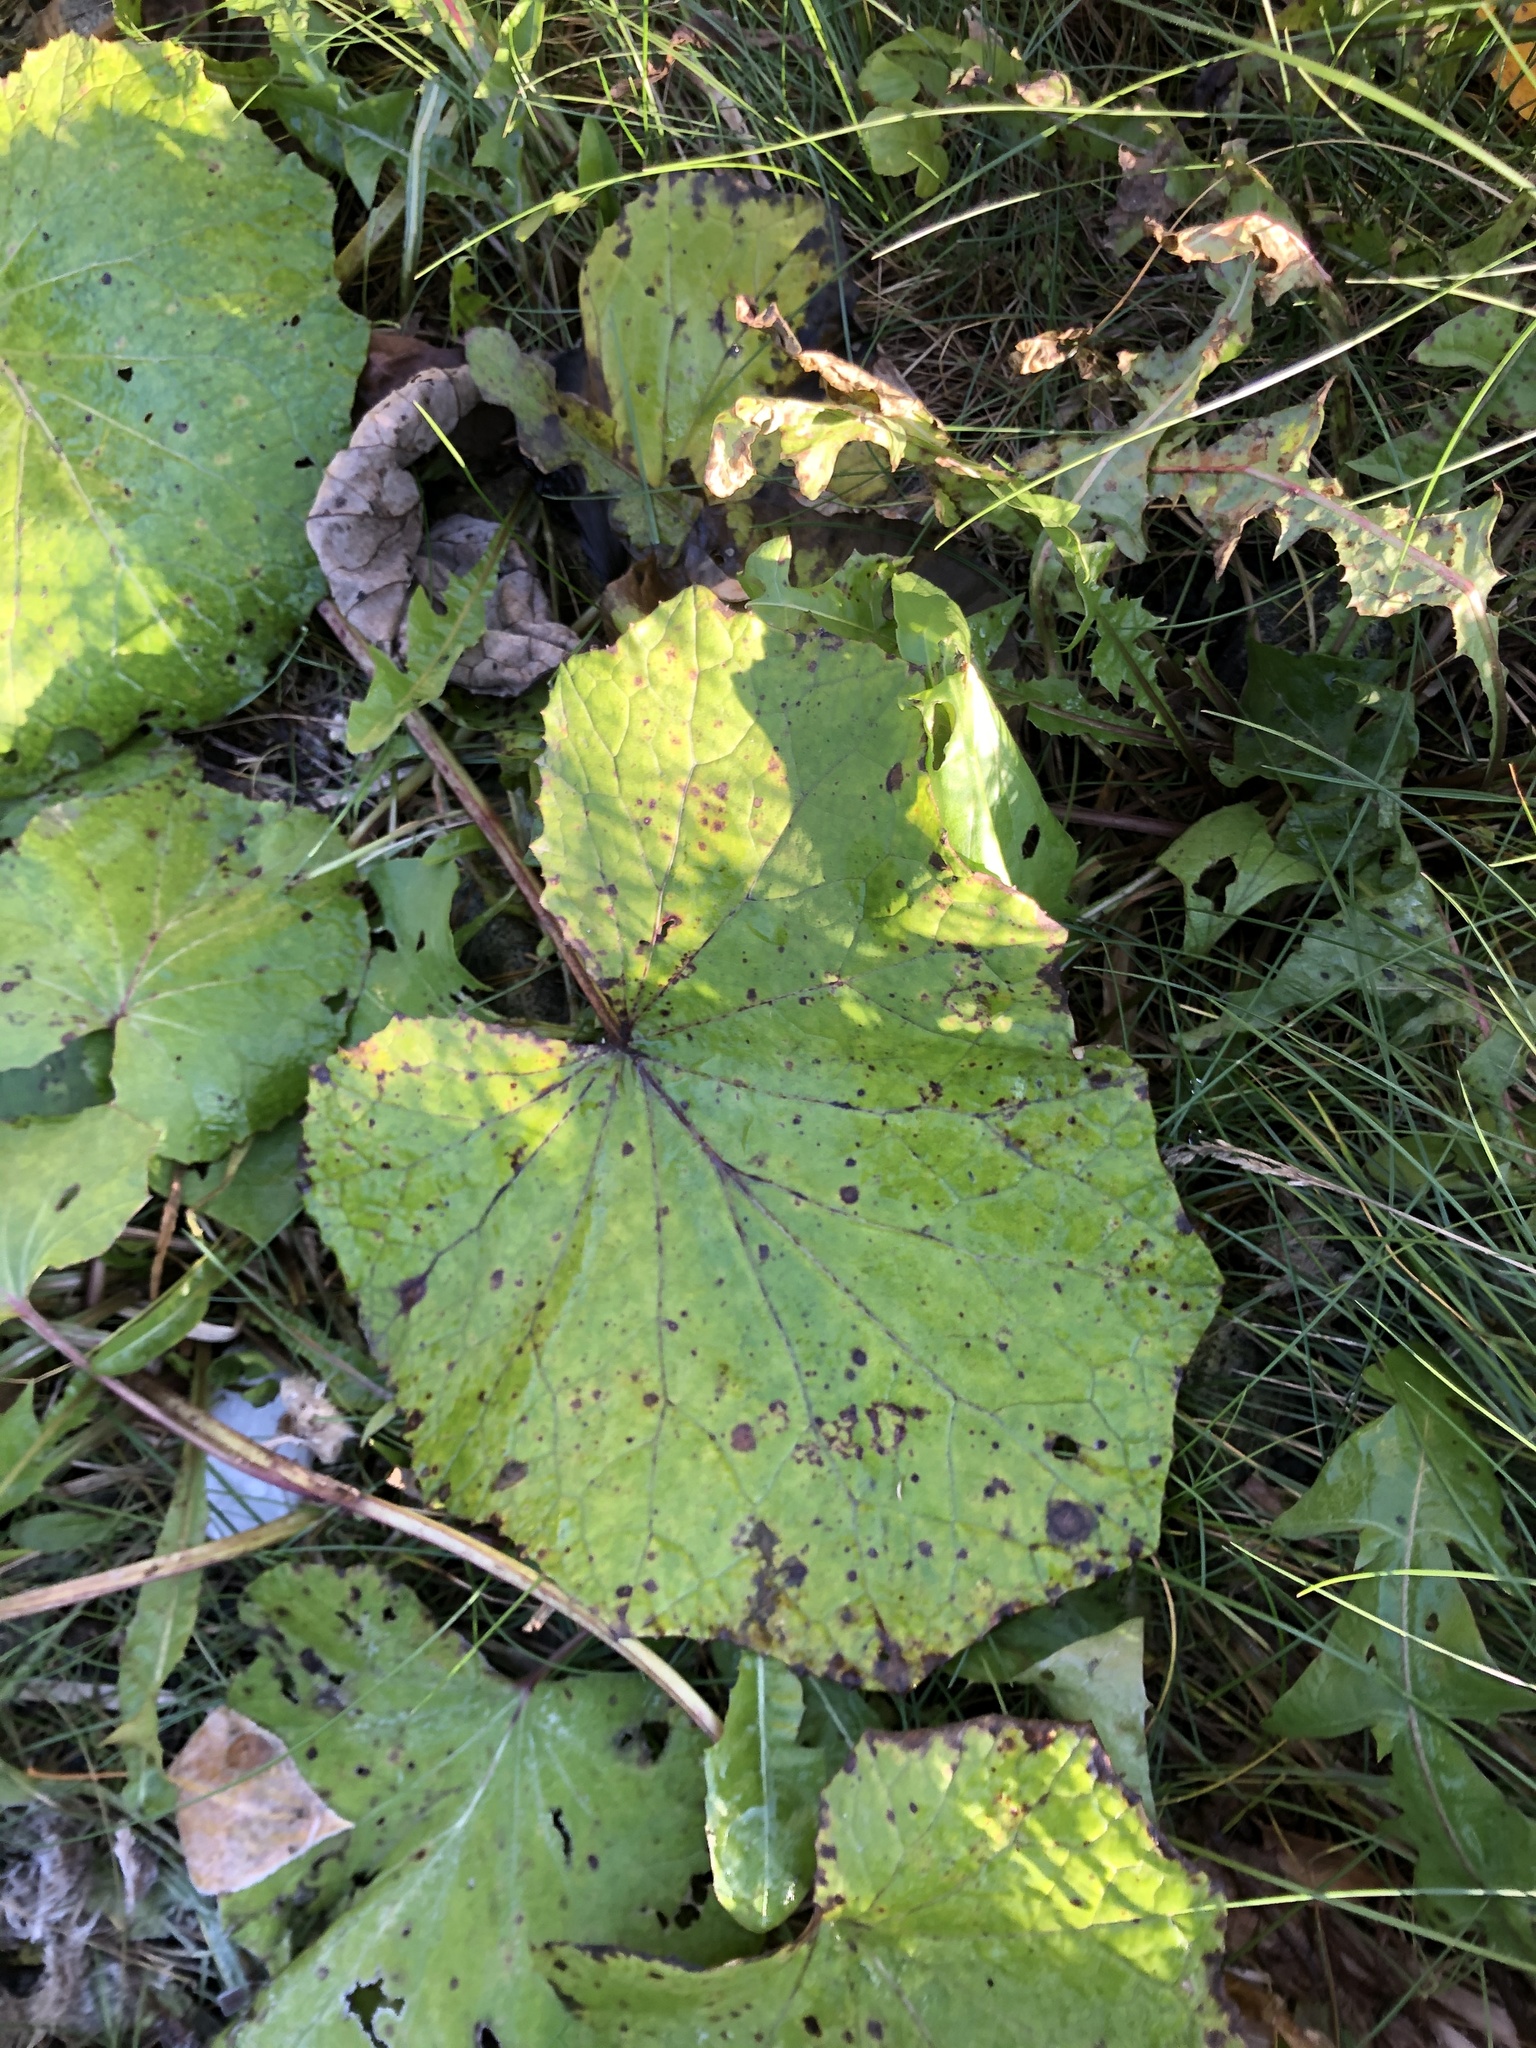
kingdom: Plantae
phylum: Tracheophyta
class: Magnoliopsida
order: Asterales
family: Asteraceae
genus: Tussilago
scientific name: Tussilago farfara
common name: Coltsfoot
